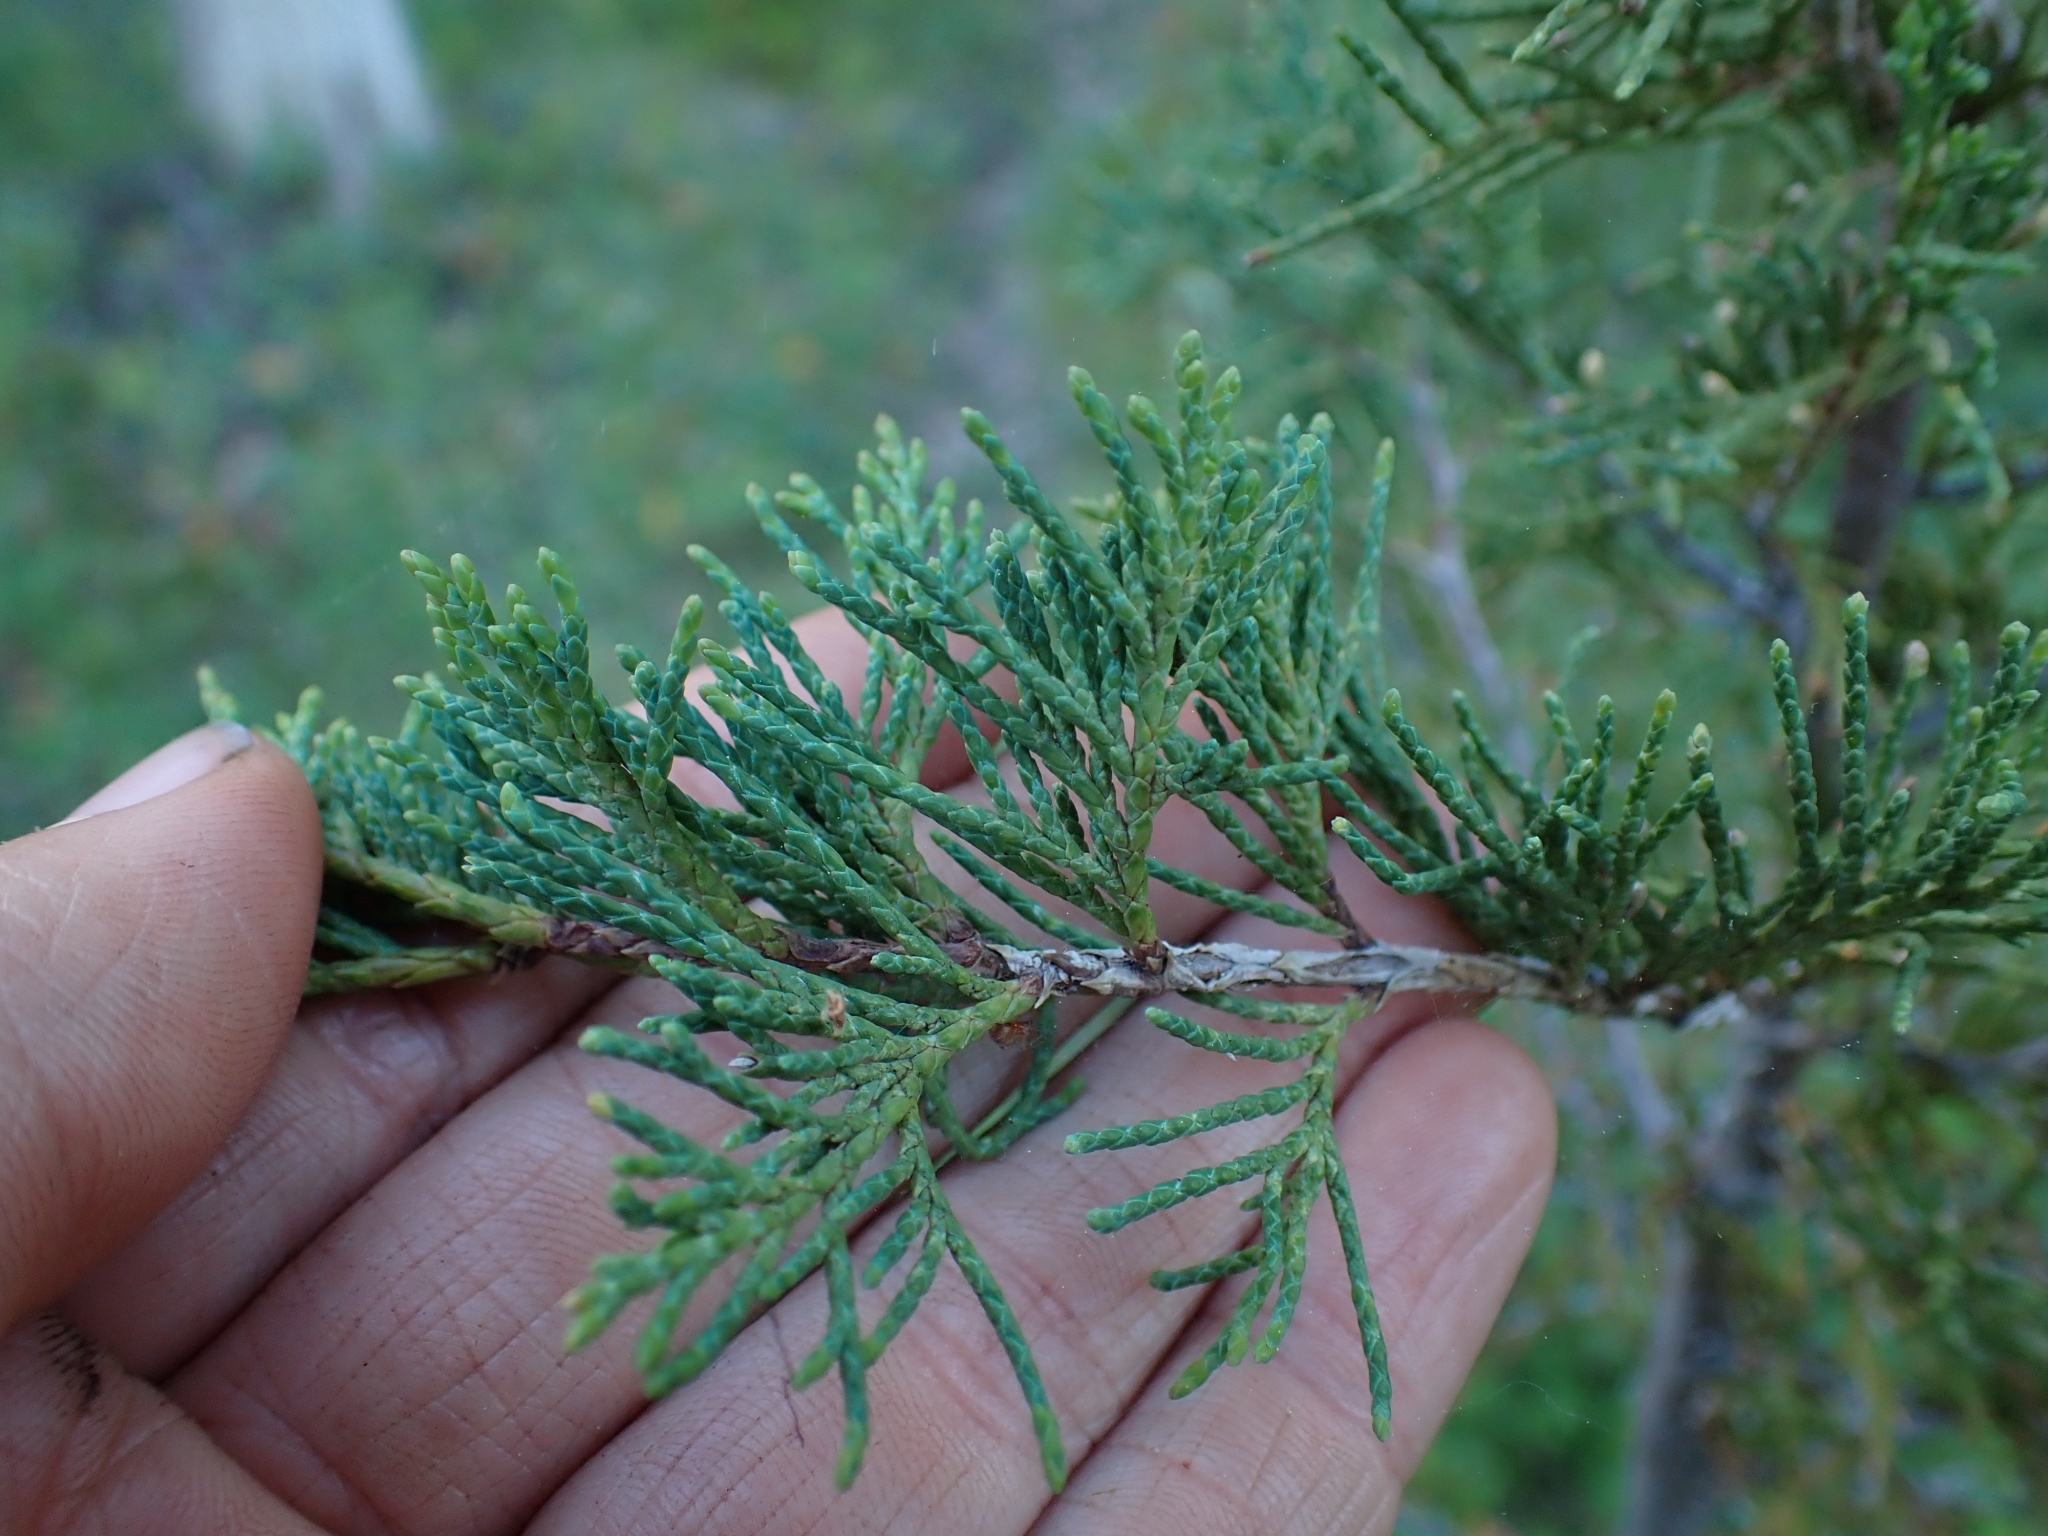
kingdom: Plantae
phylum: Tracheophyta
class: Pinopsida
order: Pinales
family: Cupressaceae
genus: Juniperus
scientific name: Juniperus scopulorum
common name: Rocky mountain juniper
